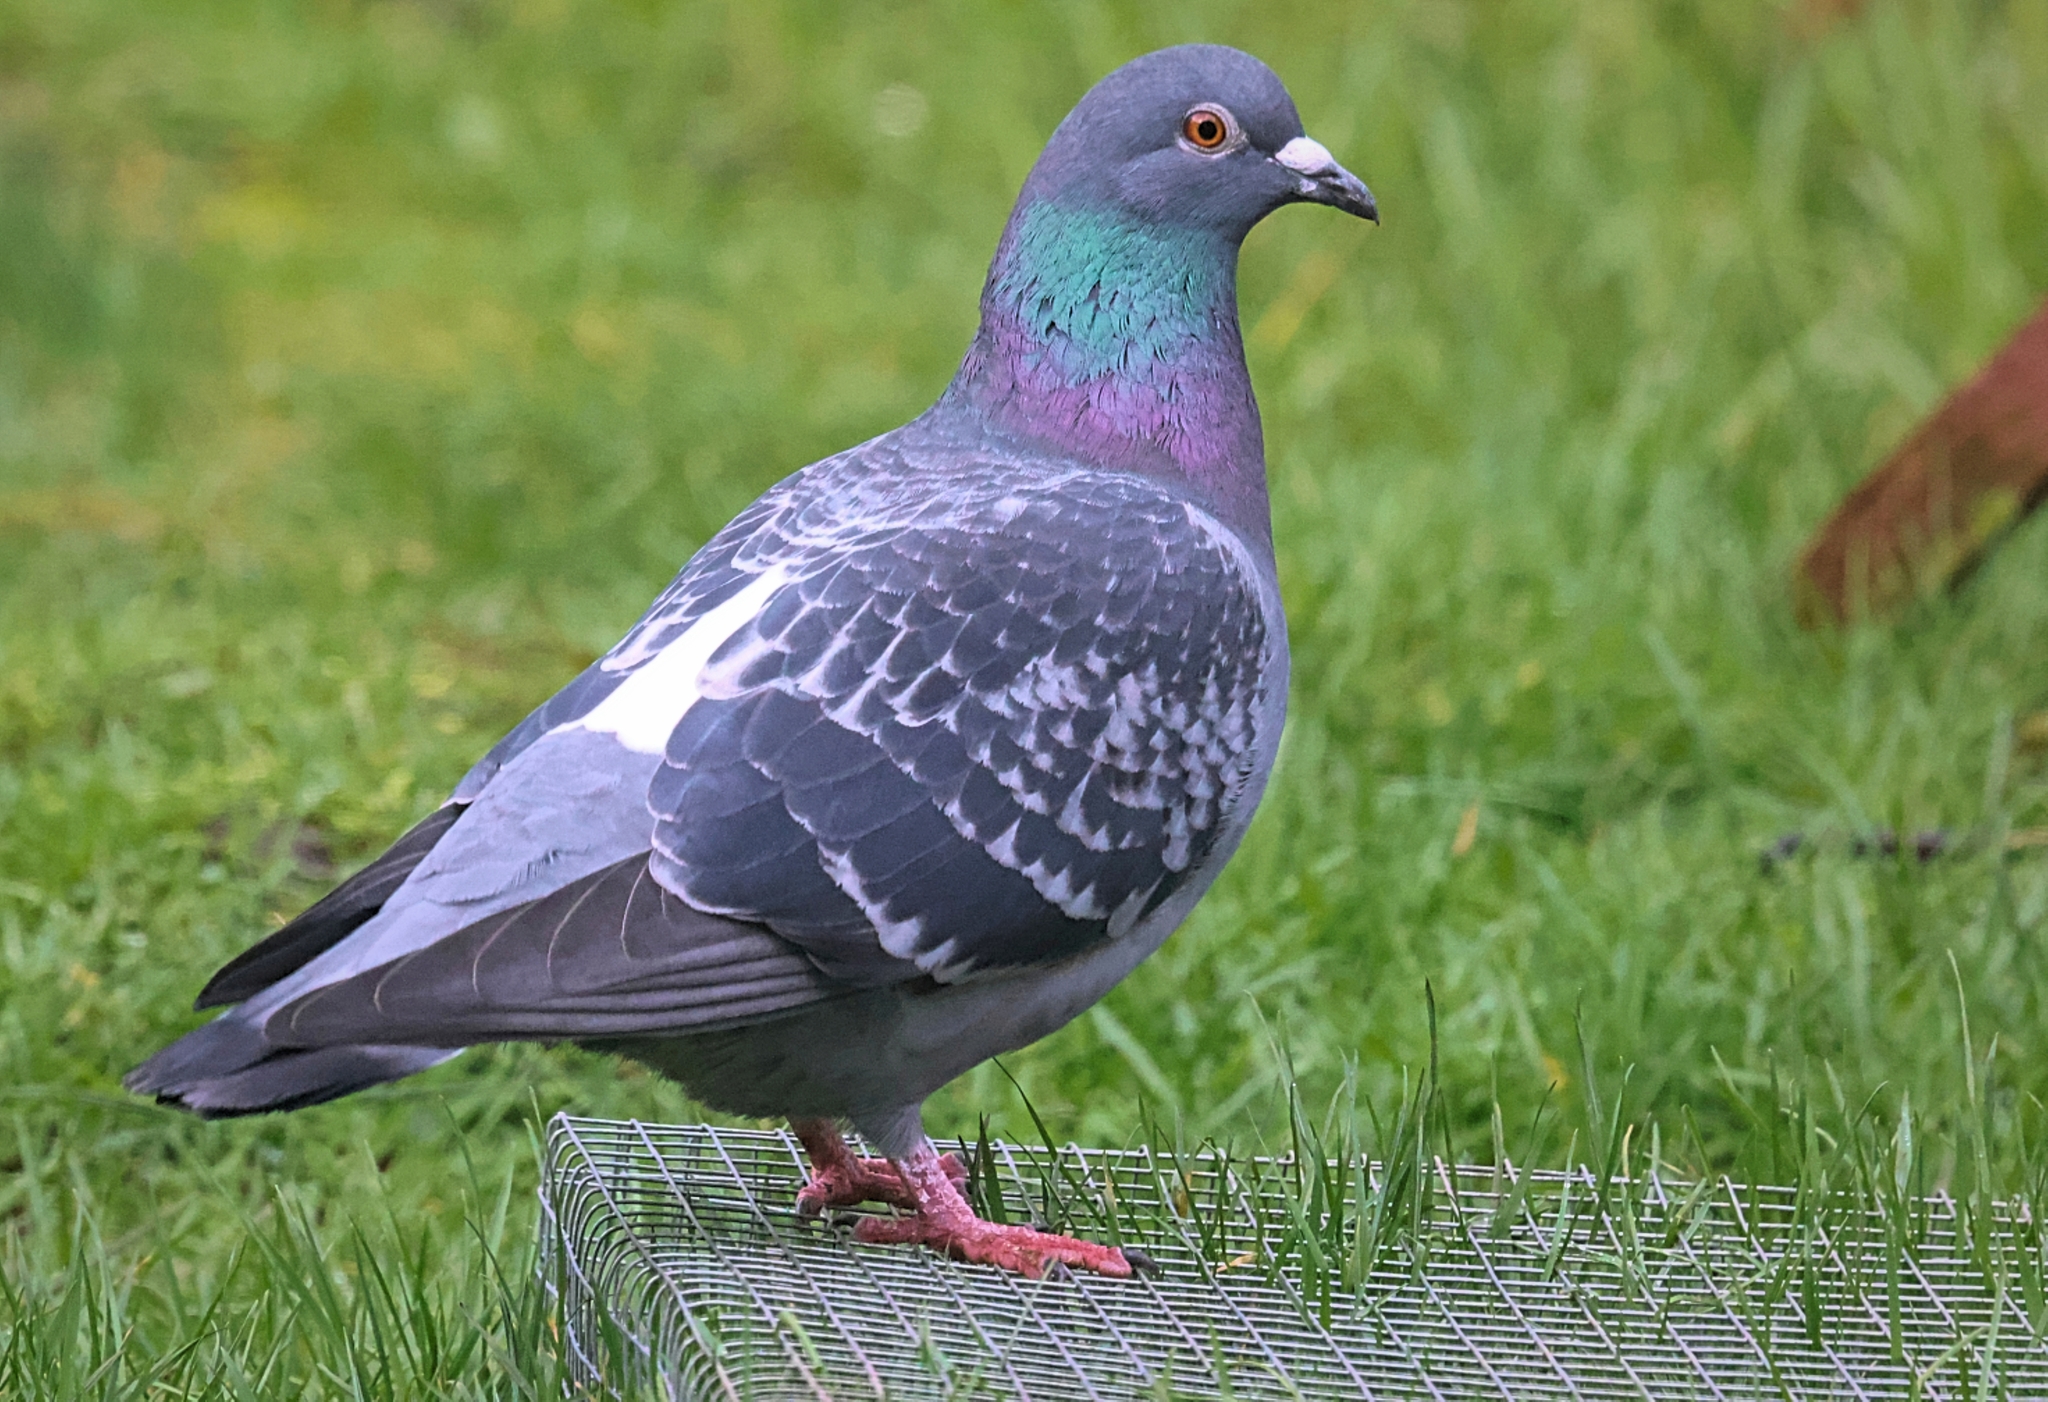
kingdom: Animalia
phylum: Chordata
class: Aves
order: Columbiformes
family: Columbidae
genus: Columba
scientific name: Columba livia
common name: Rock pigeon
